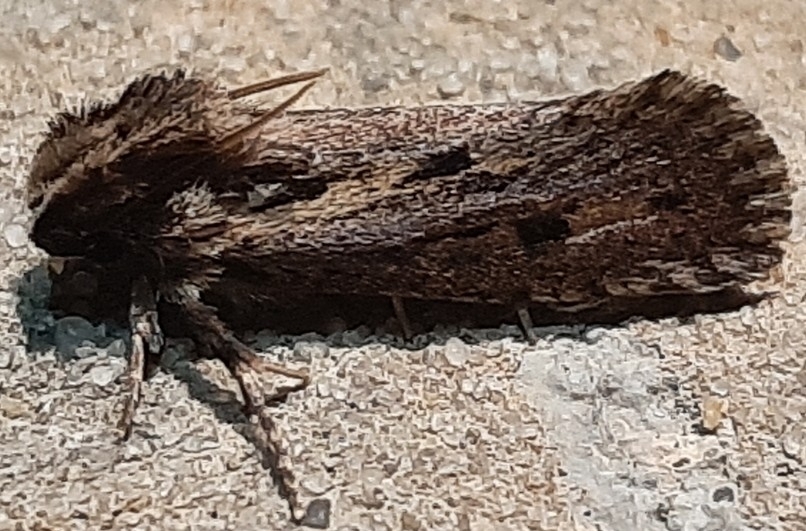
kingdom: Animalia
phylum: Arthropoda
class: Insecta
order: Lepidoptera
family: Tineidae
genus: Acrolophus
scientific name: Acrolophus popeanella
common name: Clemens' grass tubeworm moth
